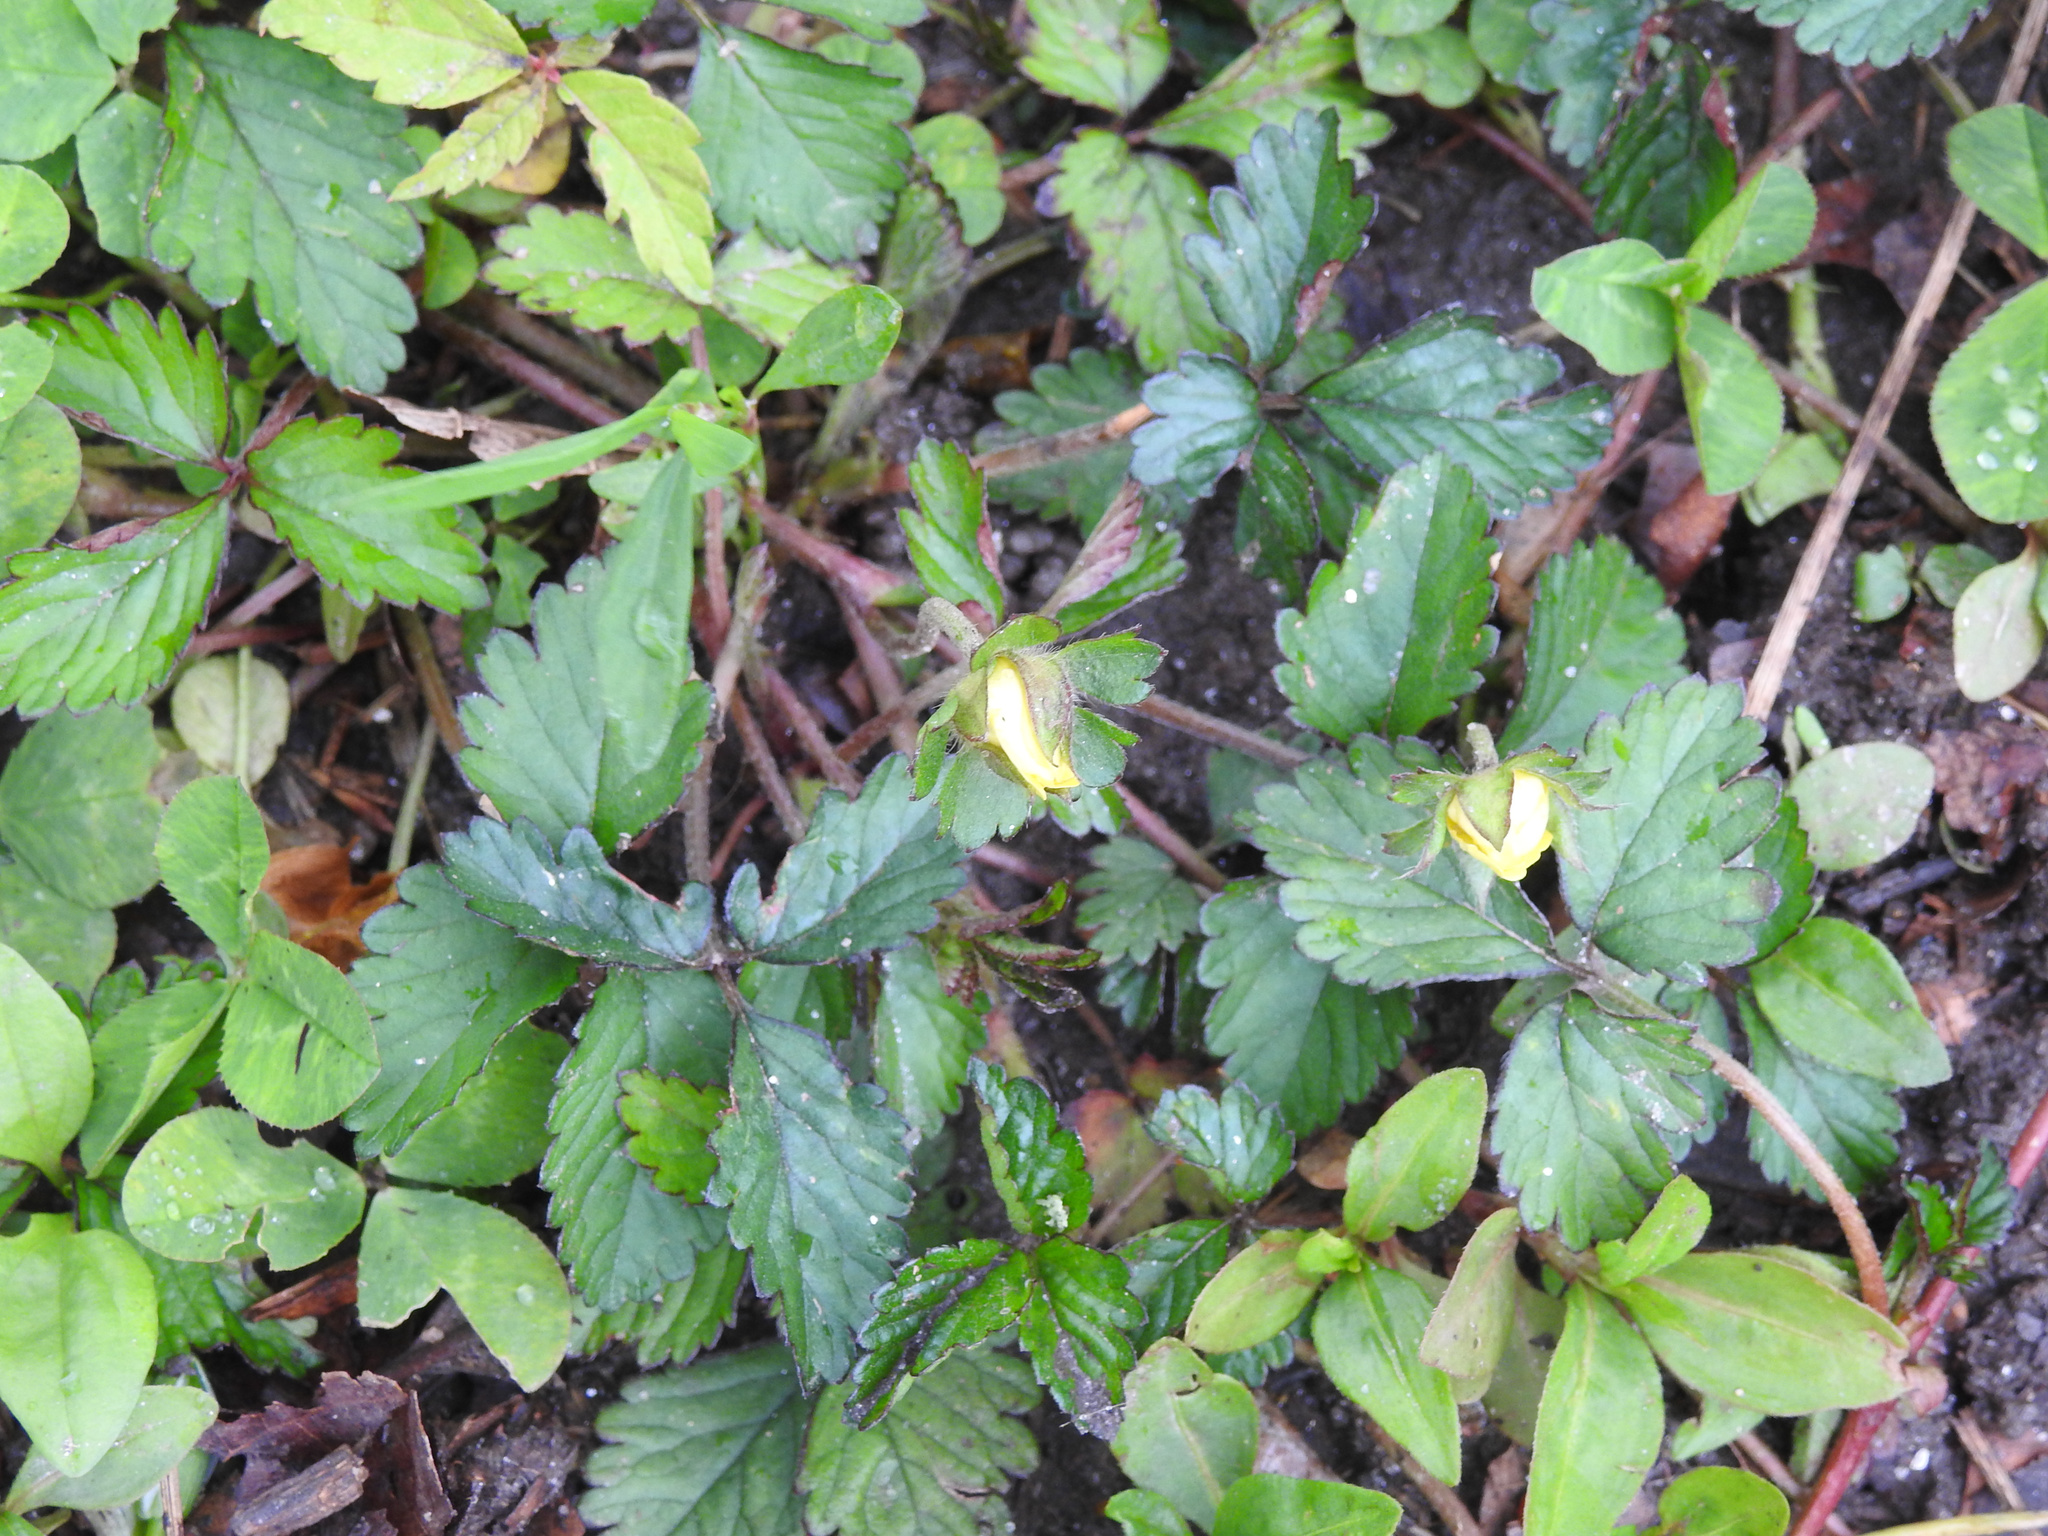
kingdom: Plantae
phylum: Tracheophyta
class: Magnoliopsida
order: Rosales
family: Rosaceae
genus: Potentilla
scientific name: Potentilla indica
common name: Yellow-flowered strawberry
